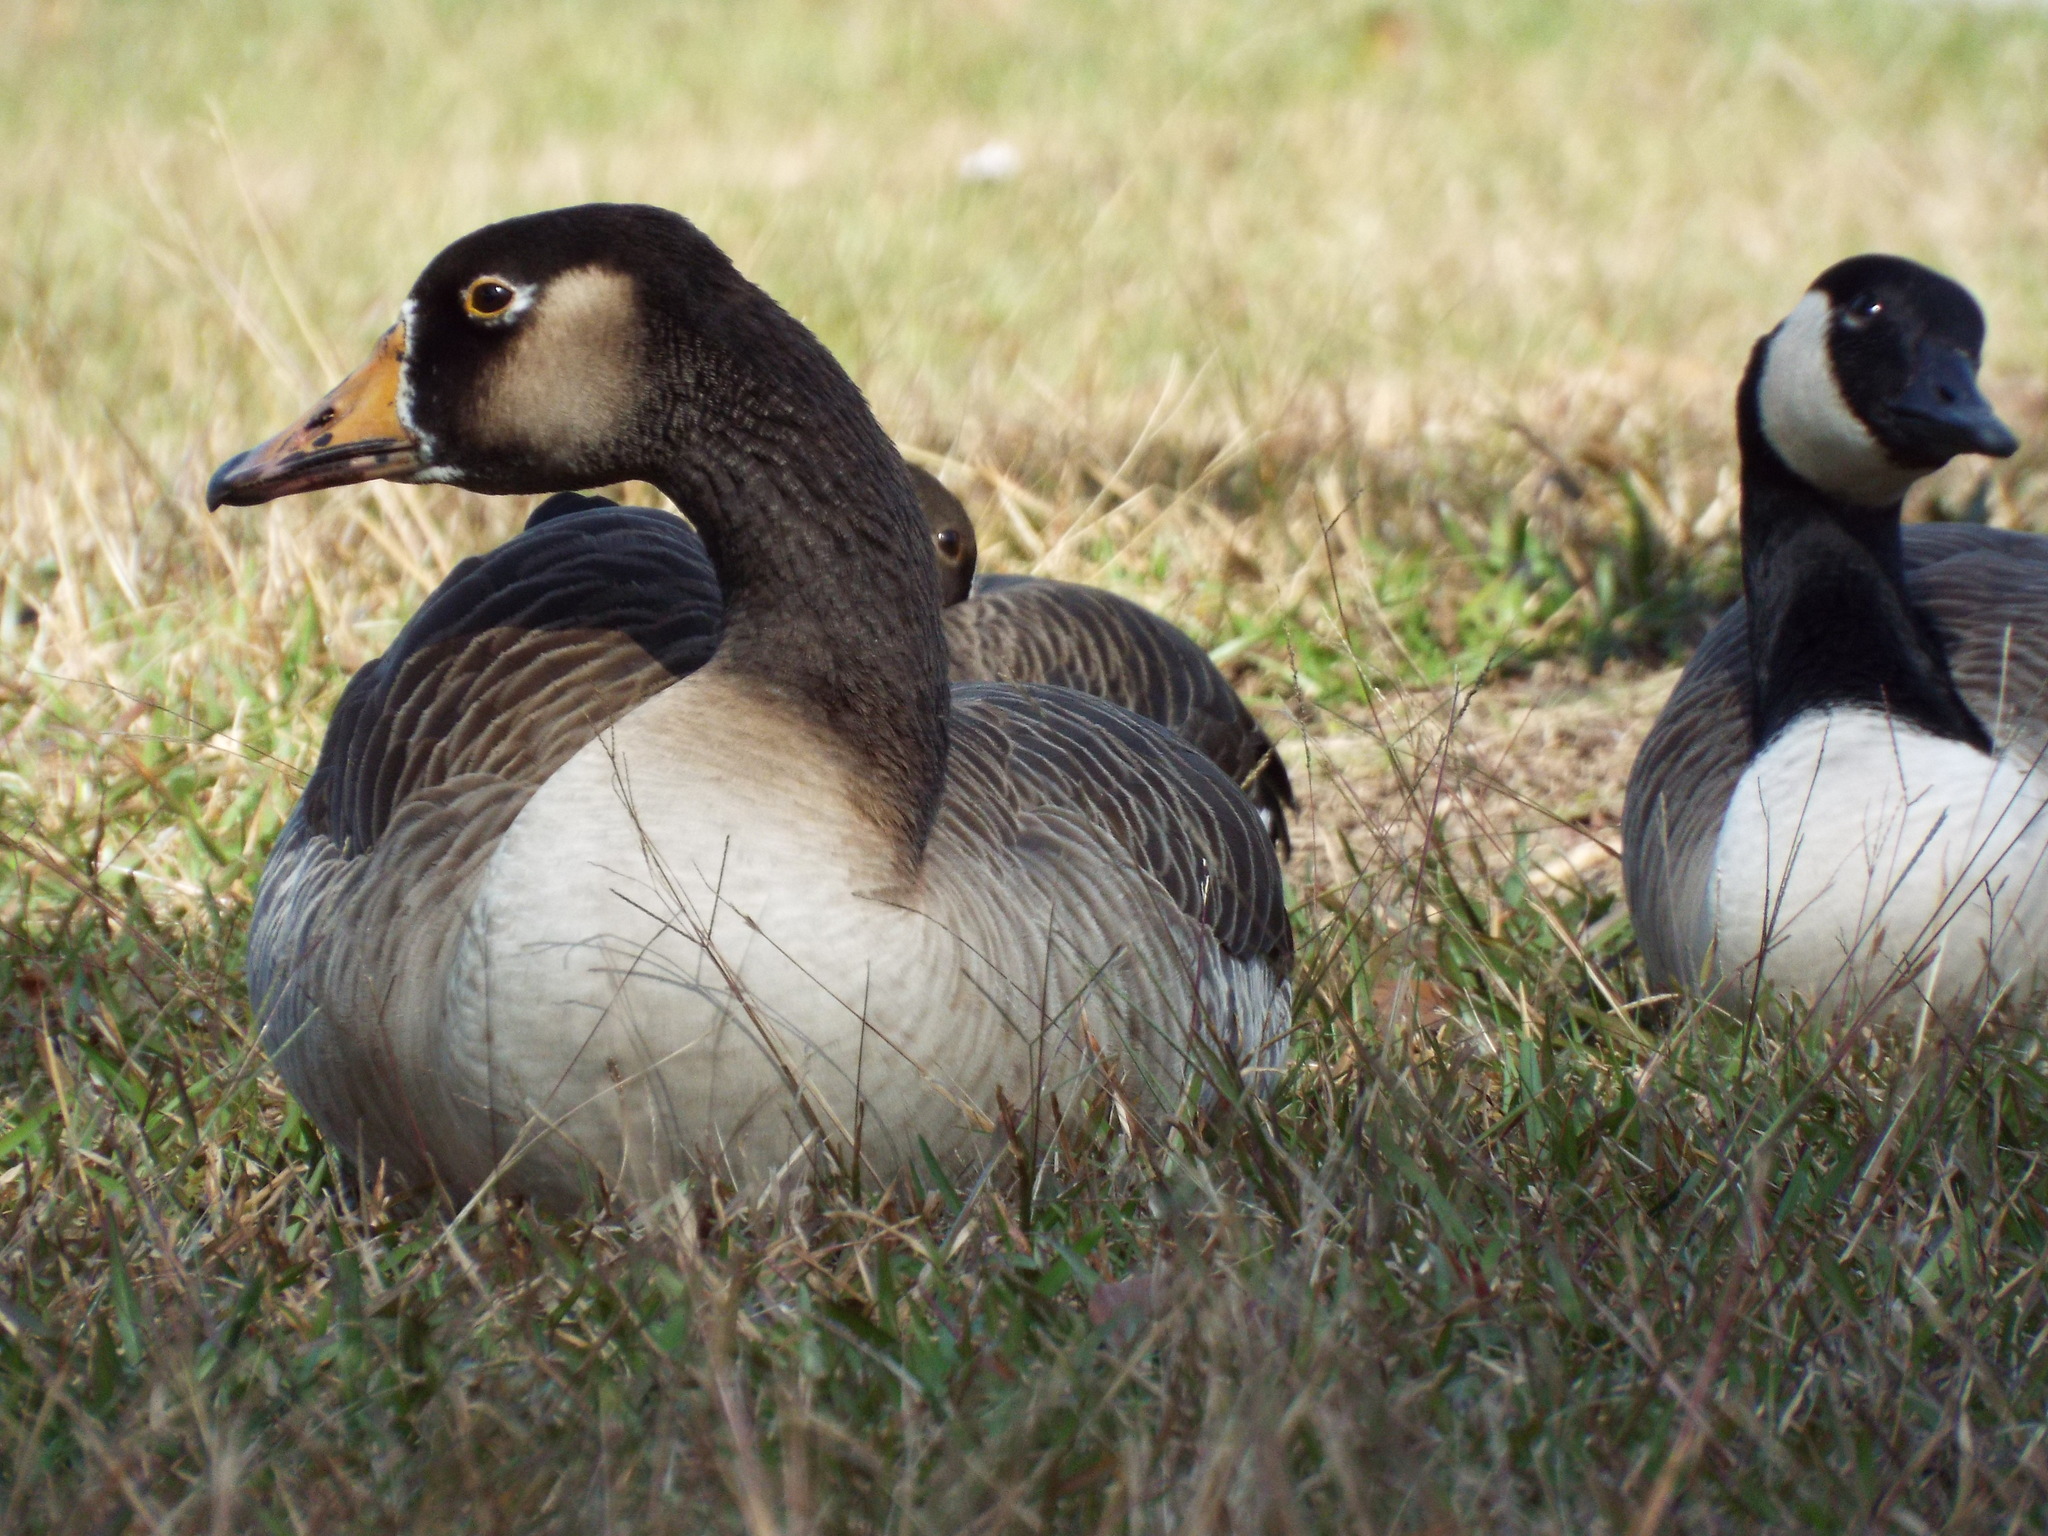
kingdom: Animalia
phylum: Chordata
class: Aves
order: Anseriformes
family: Anatidae
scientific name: Anatidae
